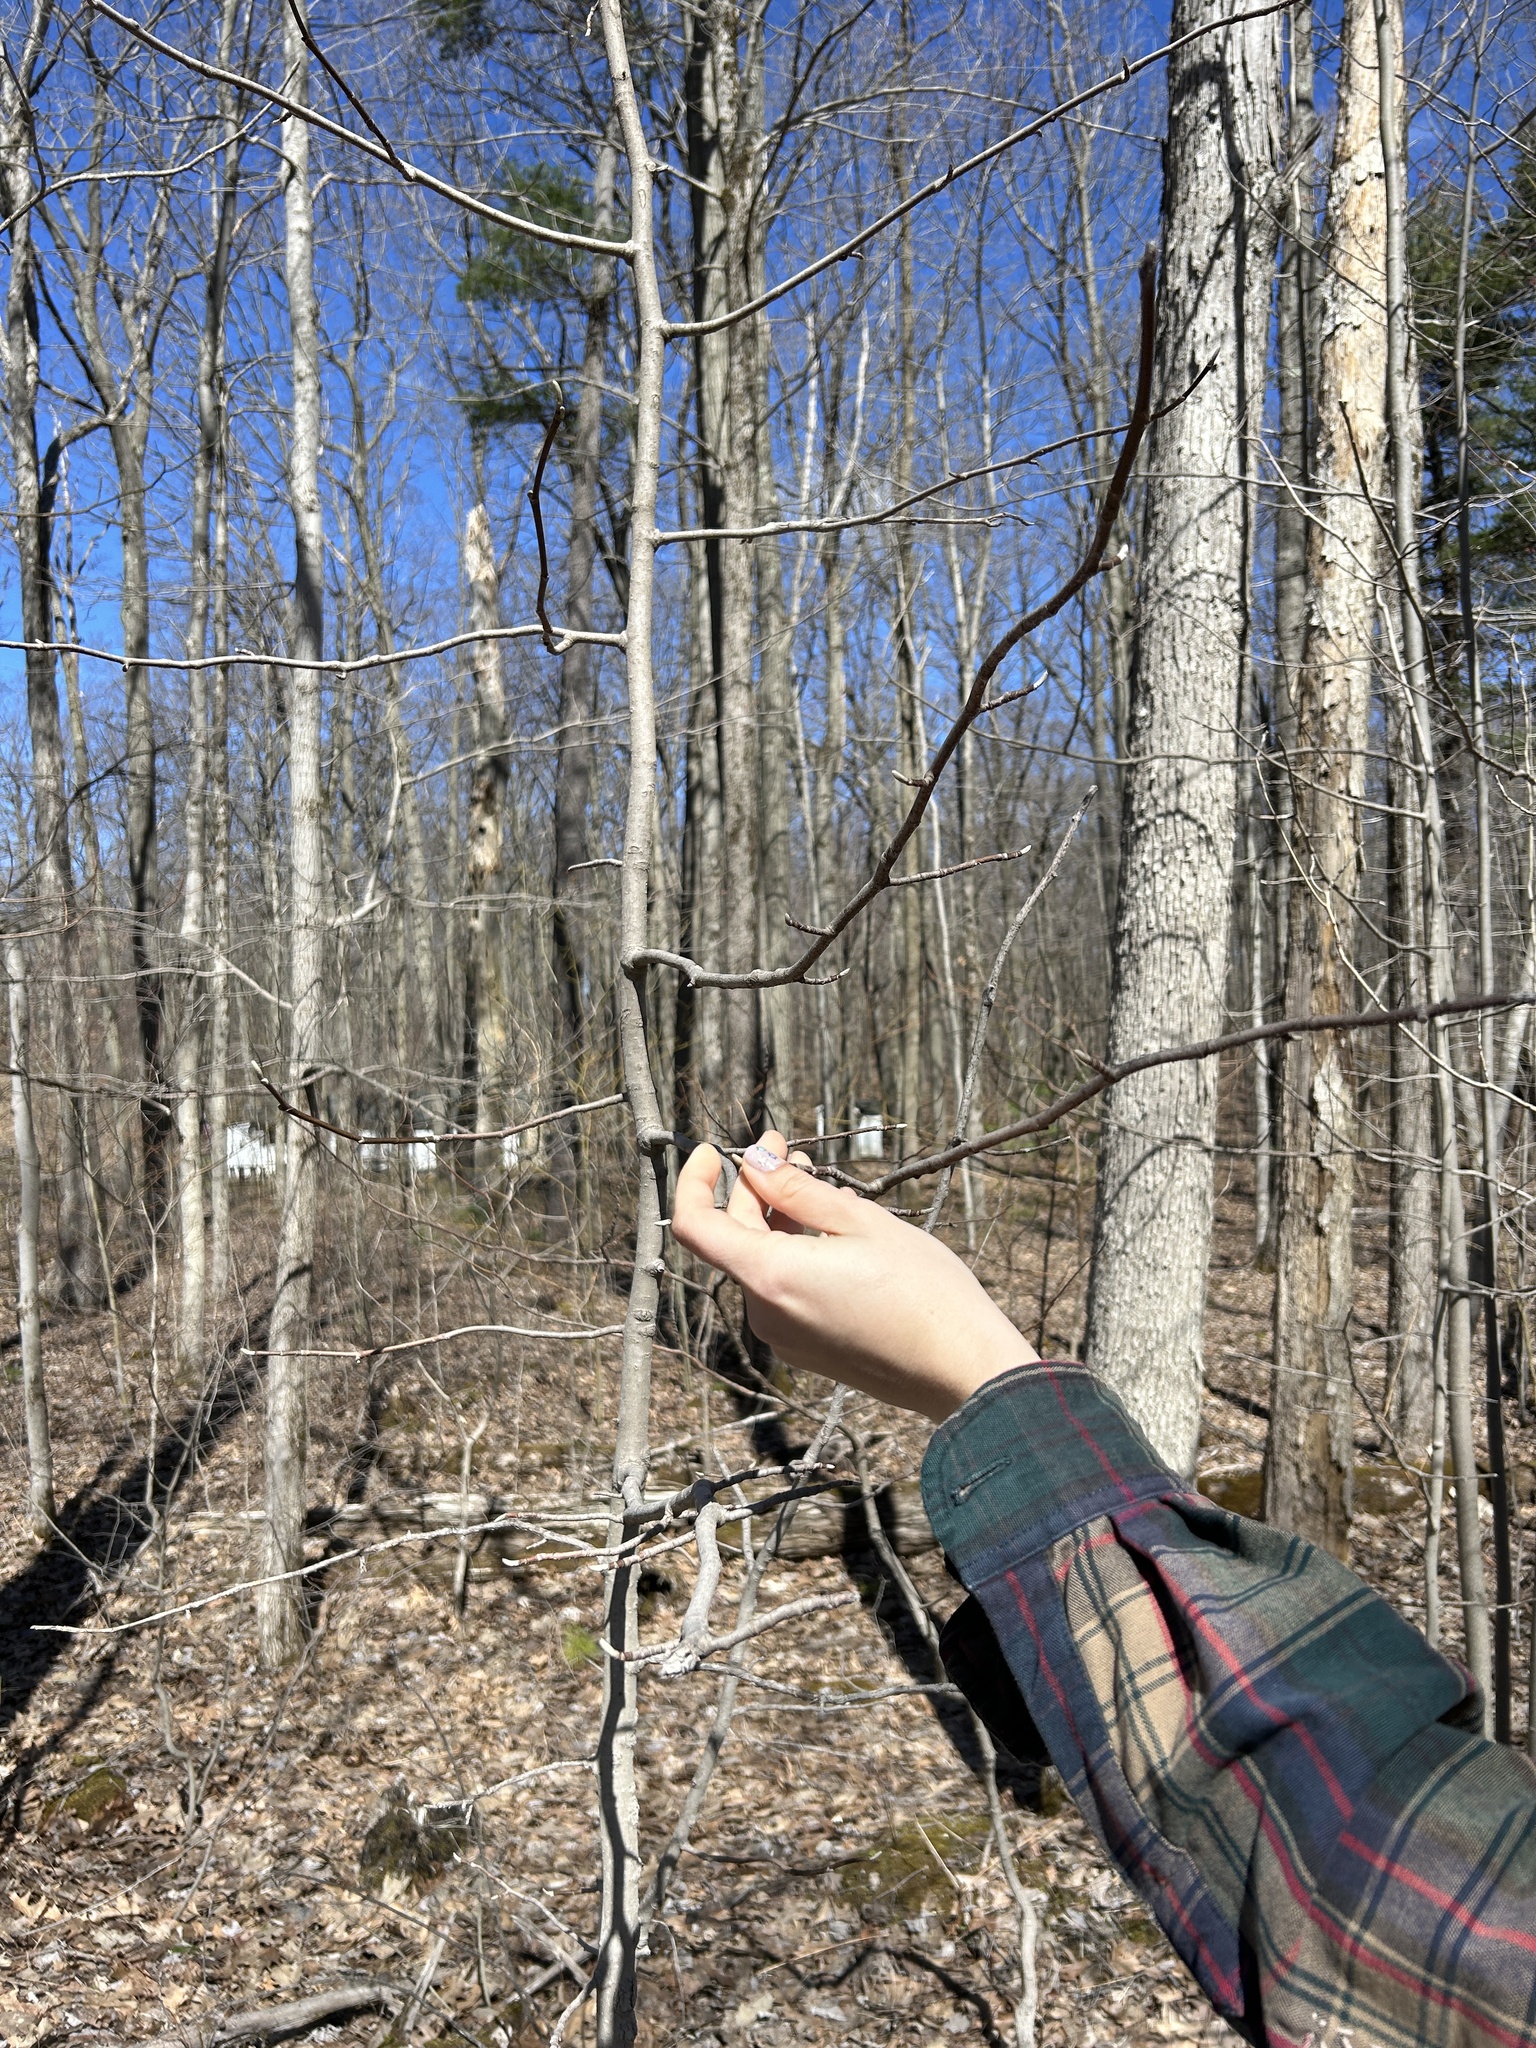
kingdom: Plantae
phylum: Tracheophyta
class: Magnoliopsida
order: Magnoliales
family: Magnoliaceae
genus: Liriodendron
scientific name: Liriodendron tulipifera
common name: Tulip tree
